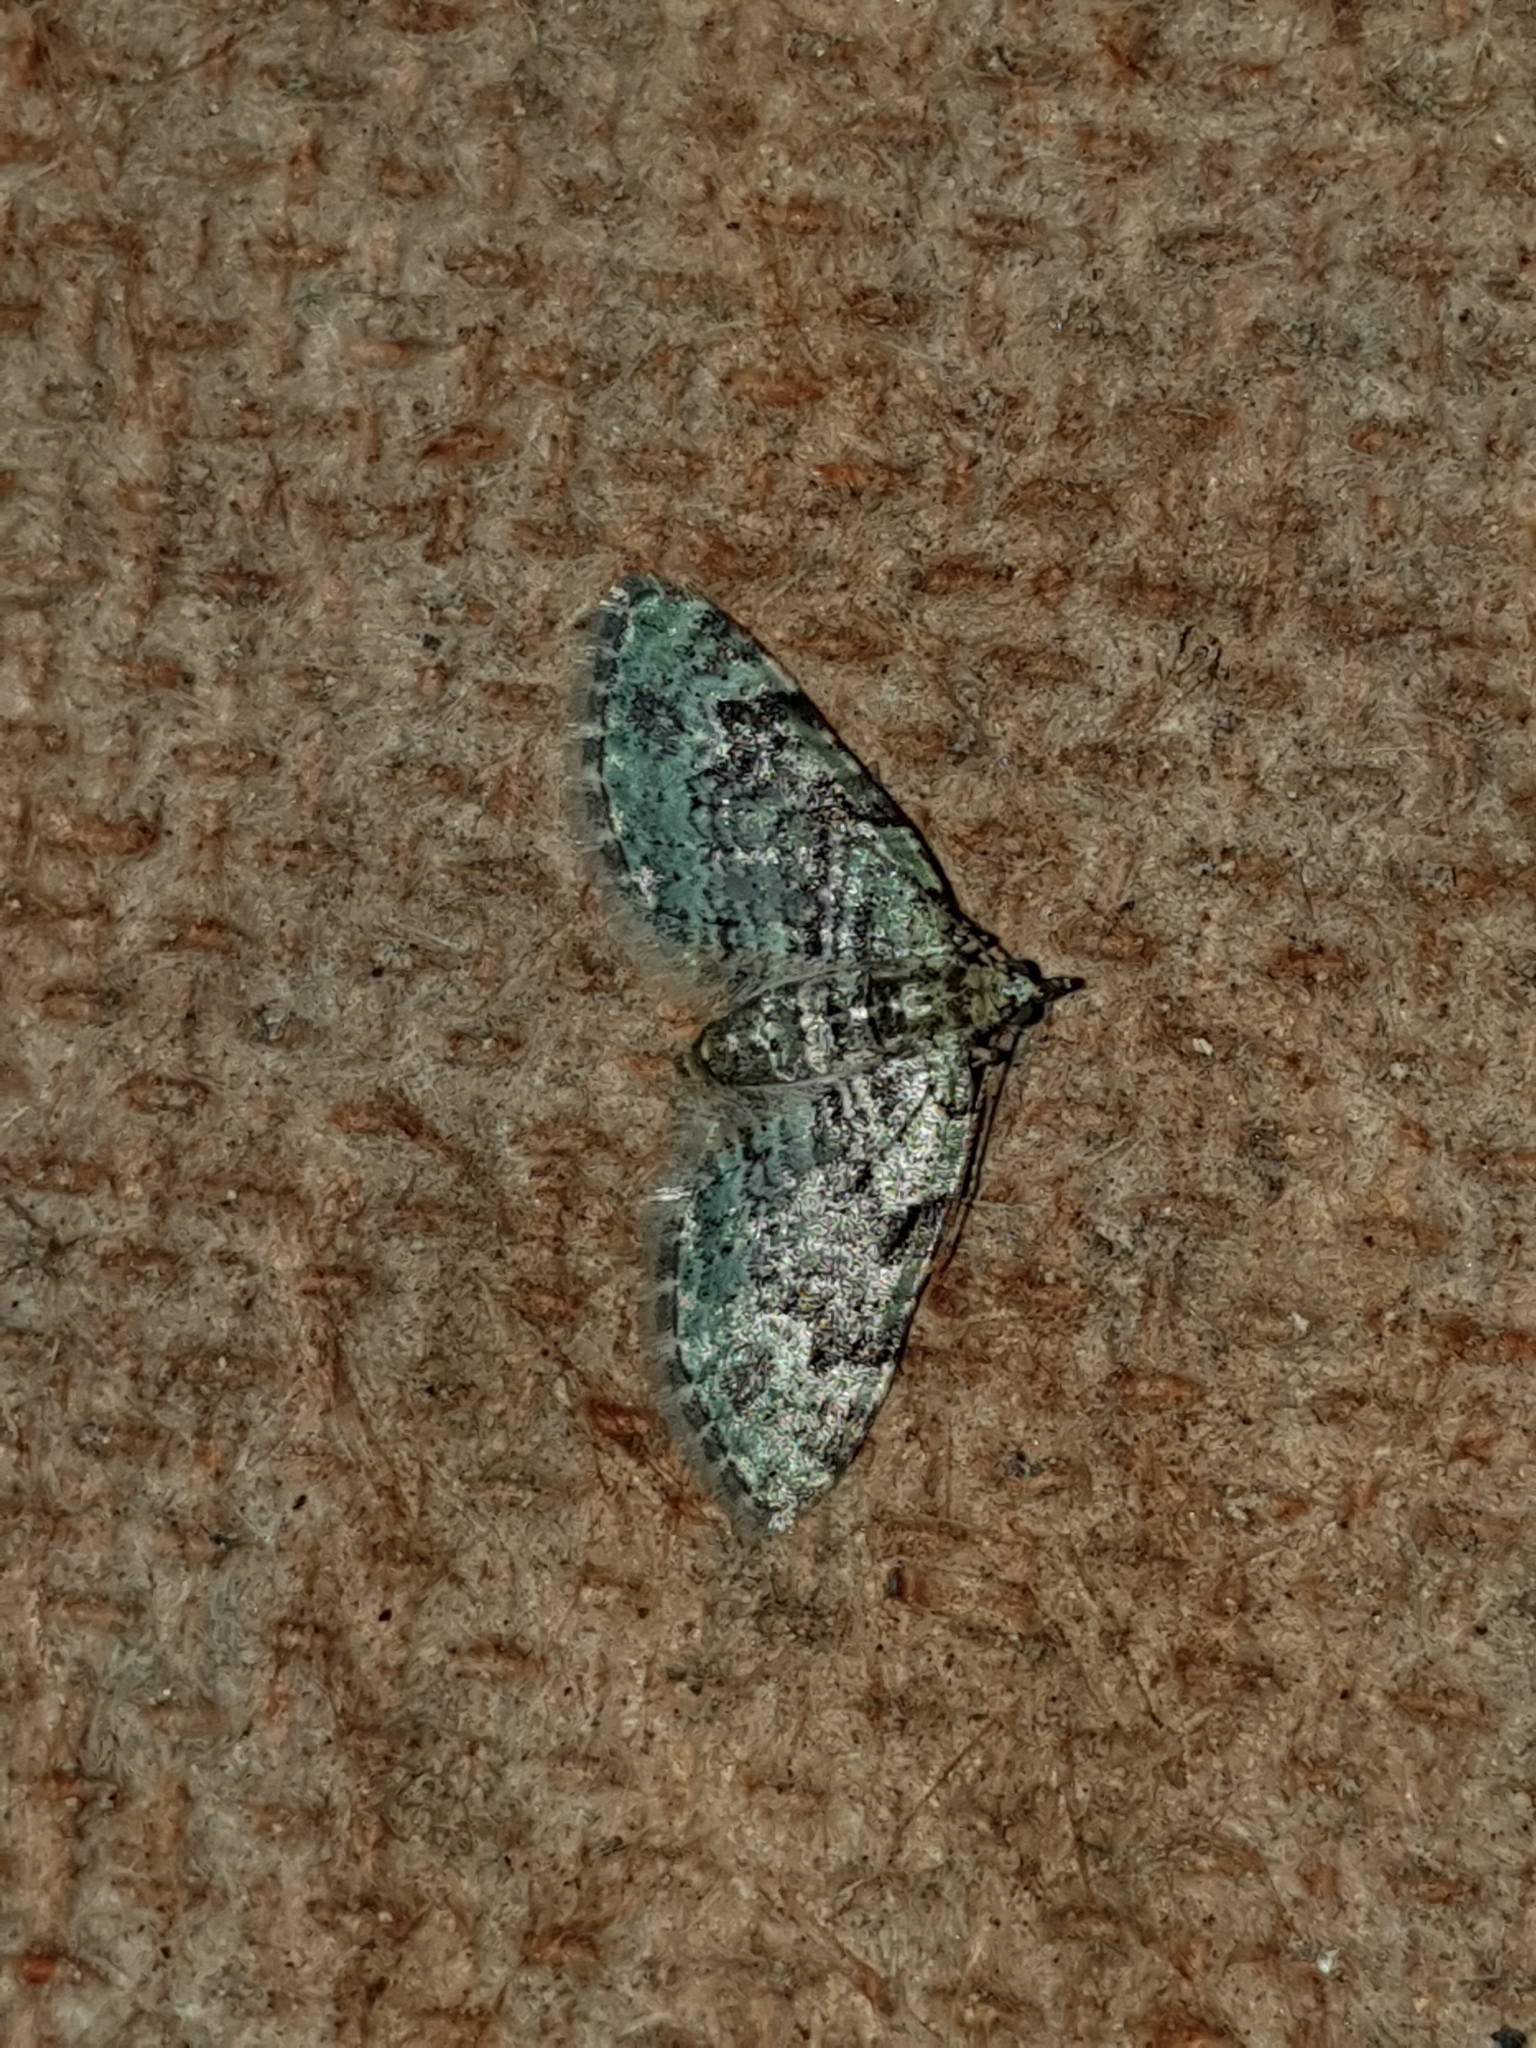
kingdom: Animalia
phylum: Arthropoda
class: Insecta
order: Lepidoptera
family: Geometridae
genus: Pasiphila
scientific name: Pasiphila rectangulata
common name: Green pug
